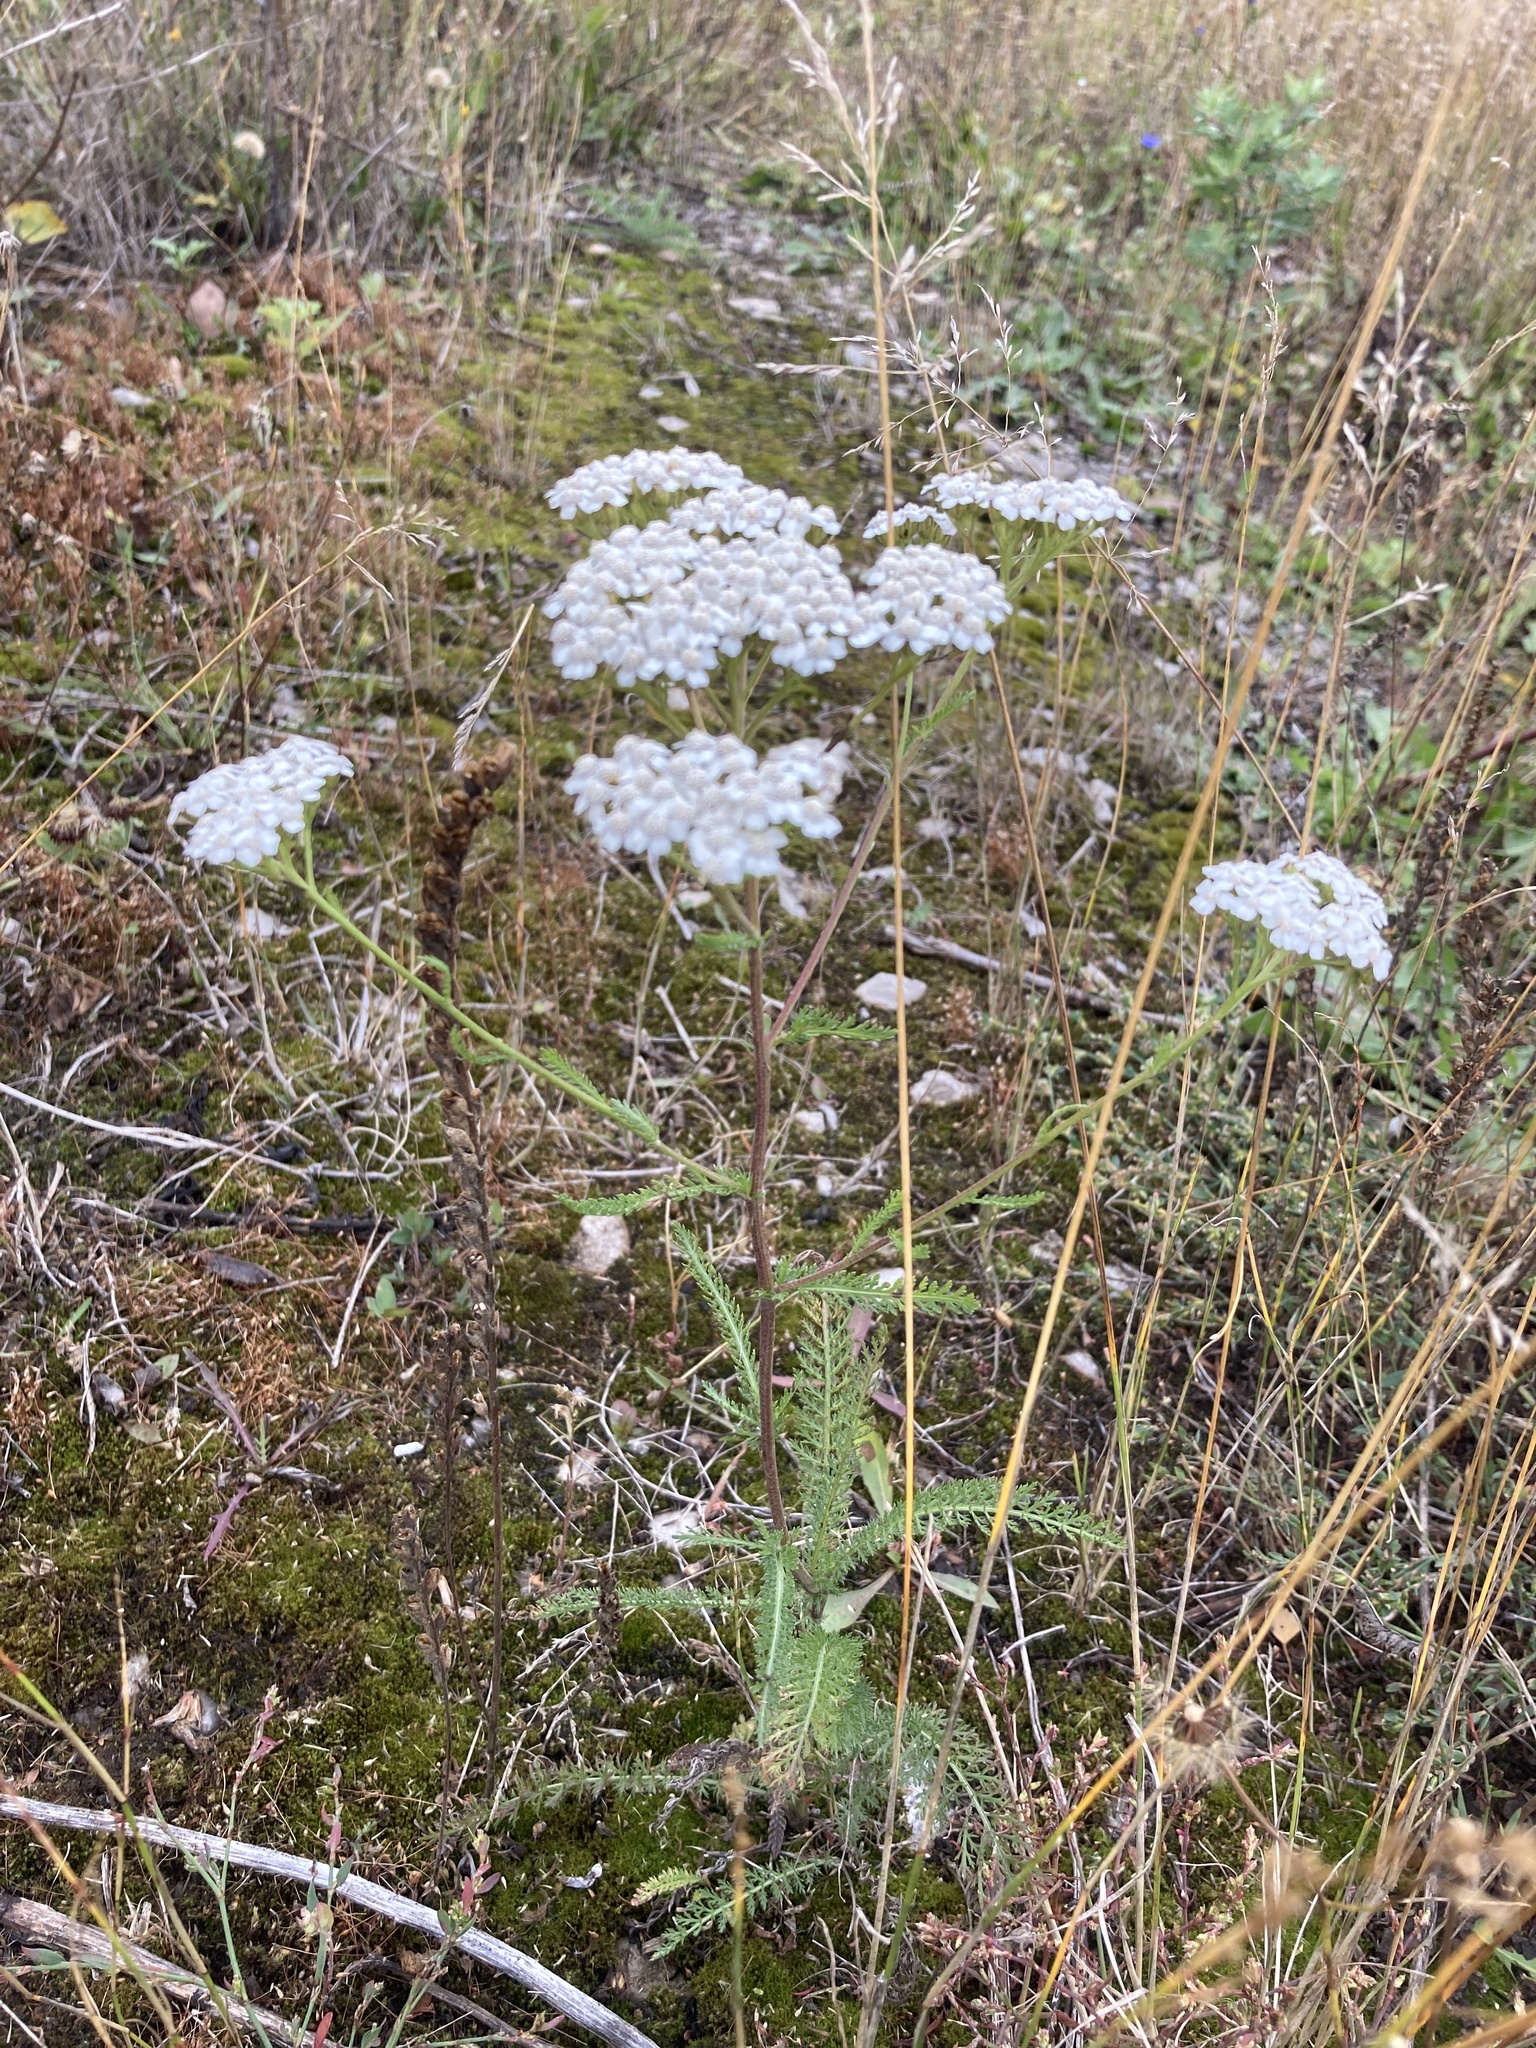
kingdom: Plantae
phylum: Tracheophyta
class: Magnoliopsida
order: Asterales
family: Asteraceae
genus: Achillea
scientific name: Achillea millefolium
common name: Yarrow
